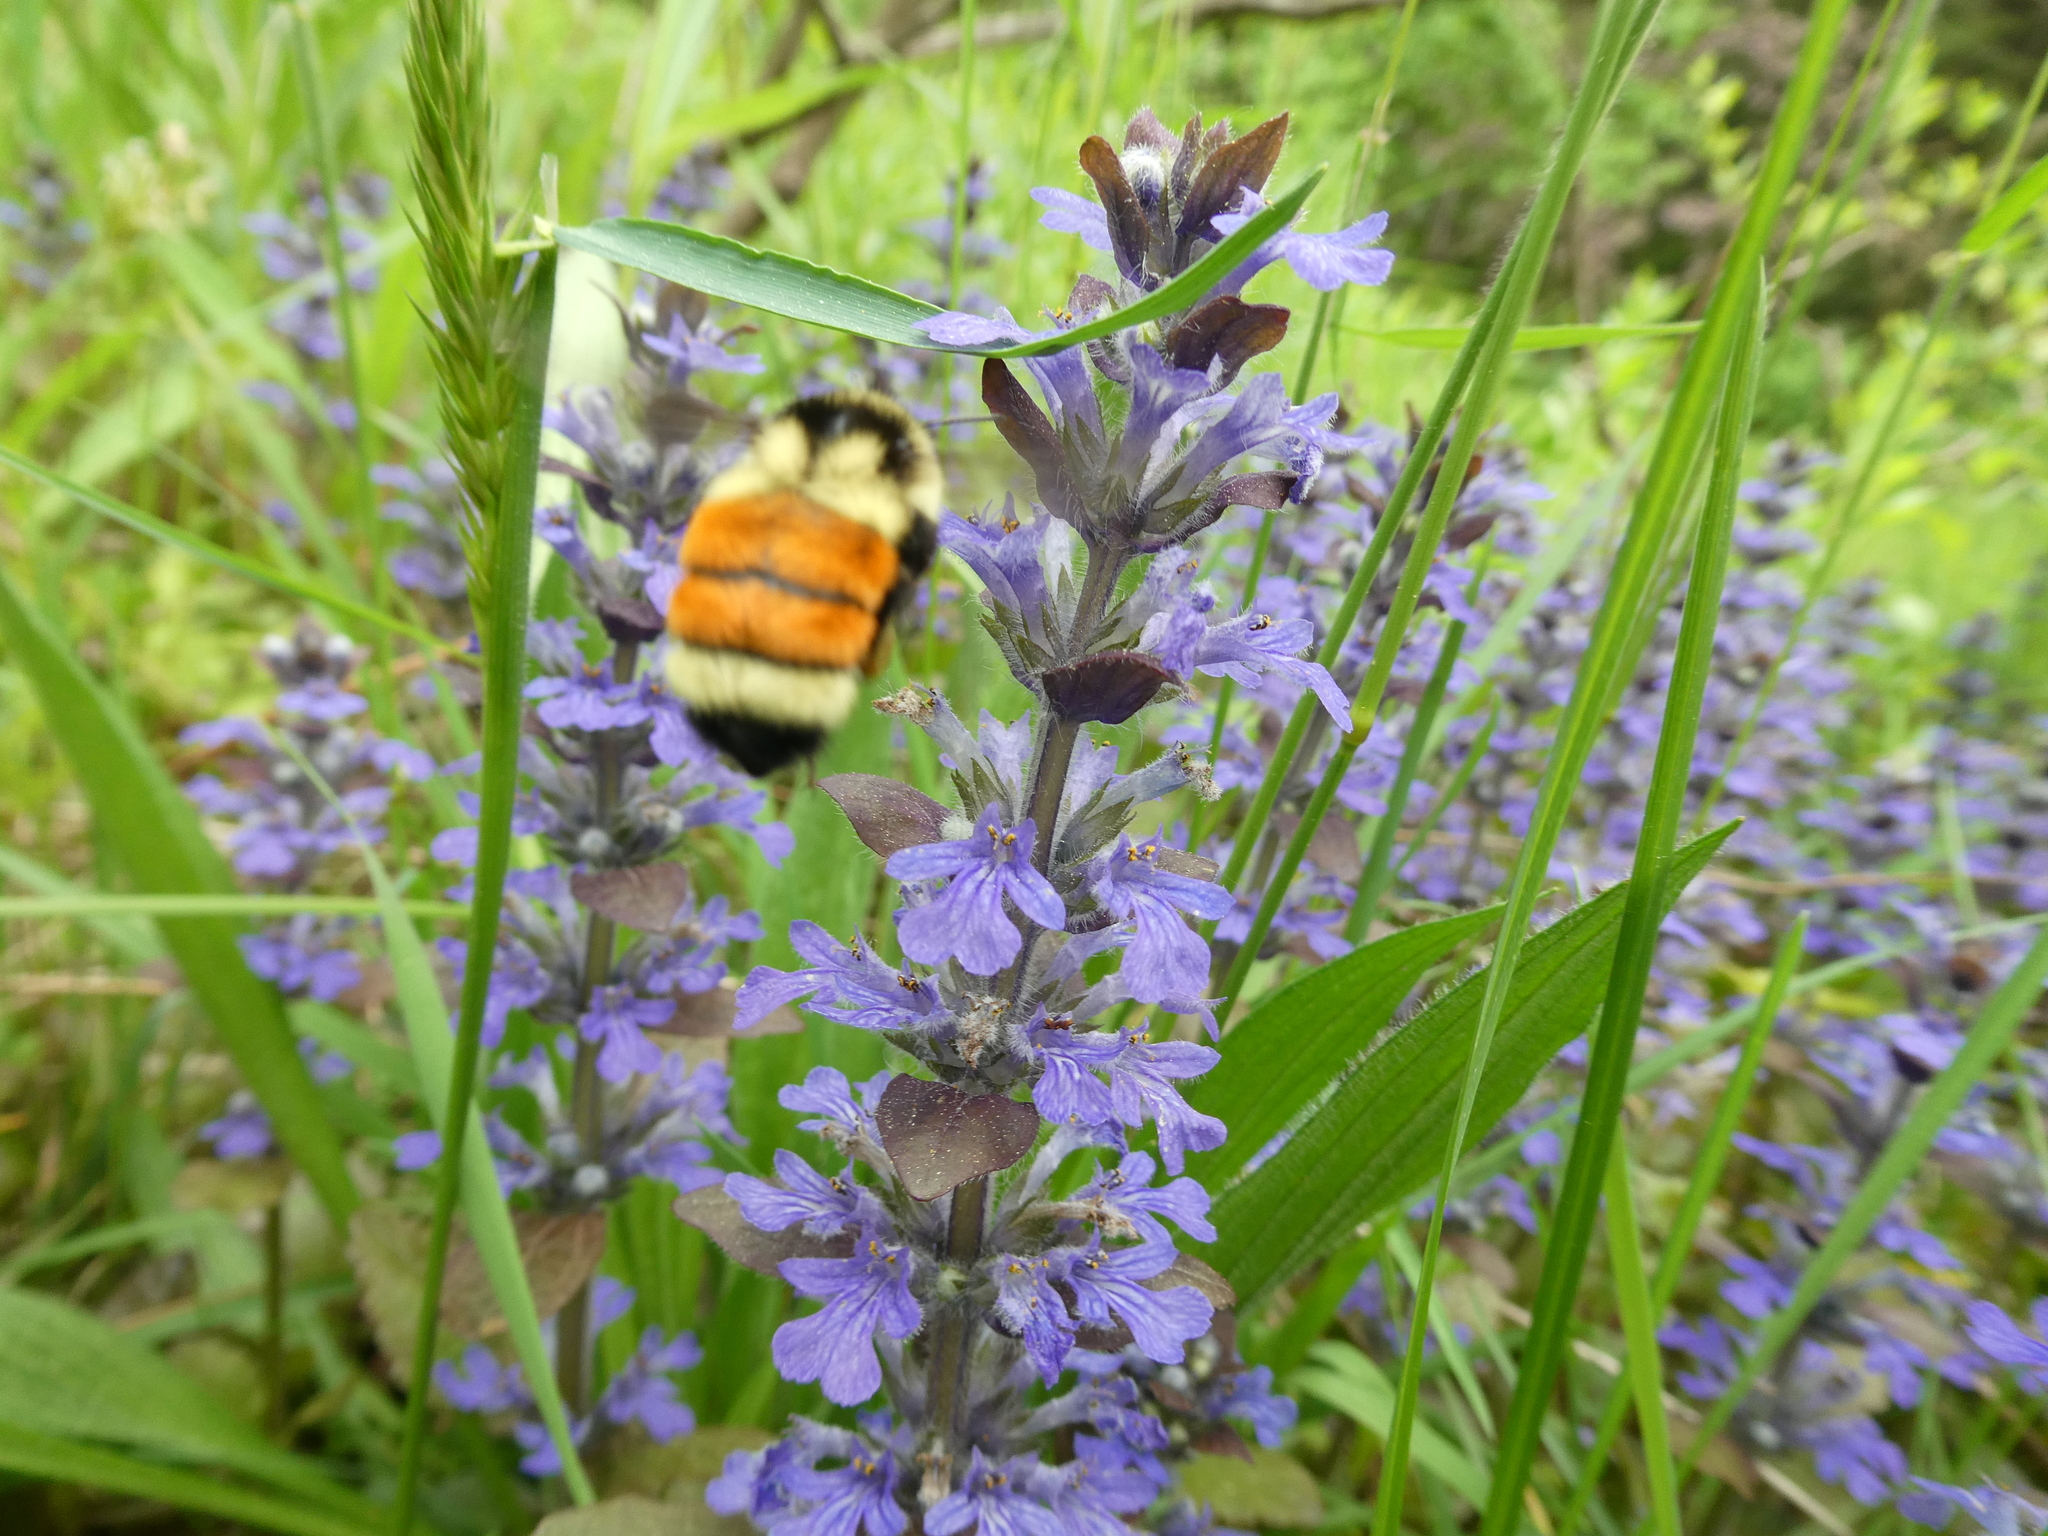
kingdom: Plantae
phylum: Tracheophyta
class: Magnoliopsida
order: Lamiales
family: Lamiaceae
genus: Ajuga
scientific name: Ajuga reptans
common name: Bugle
